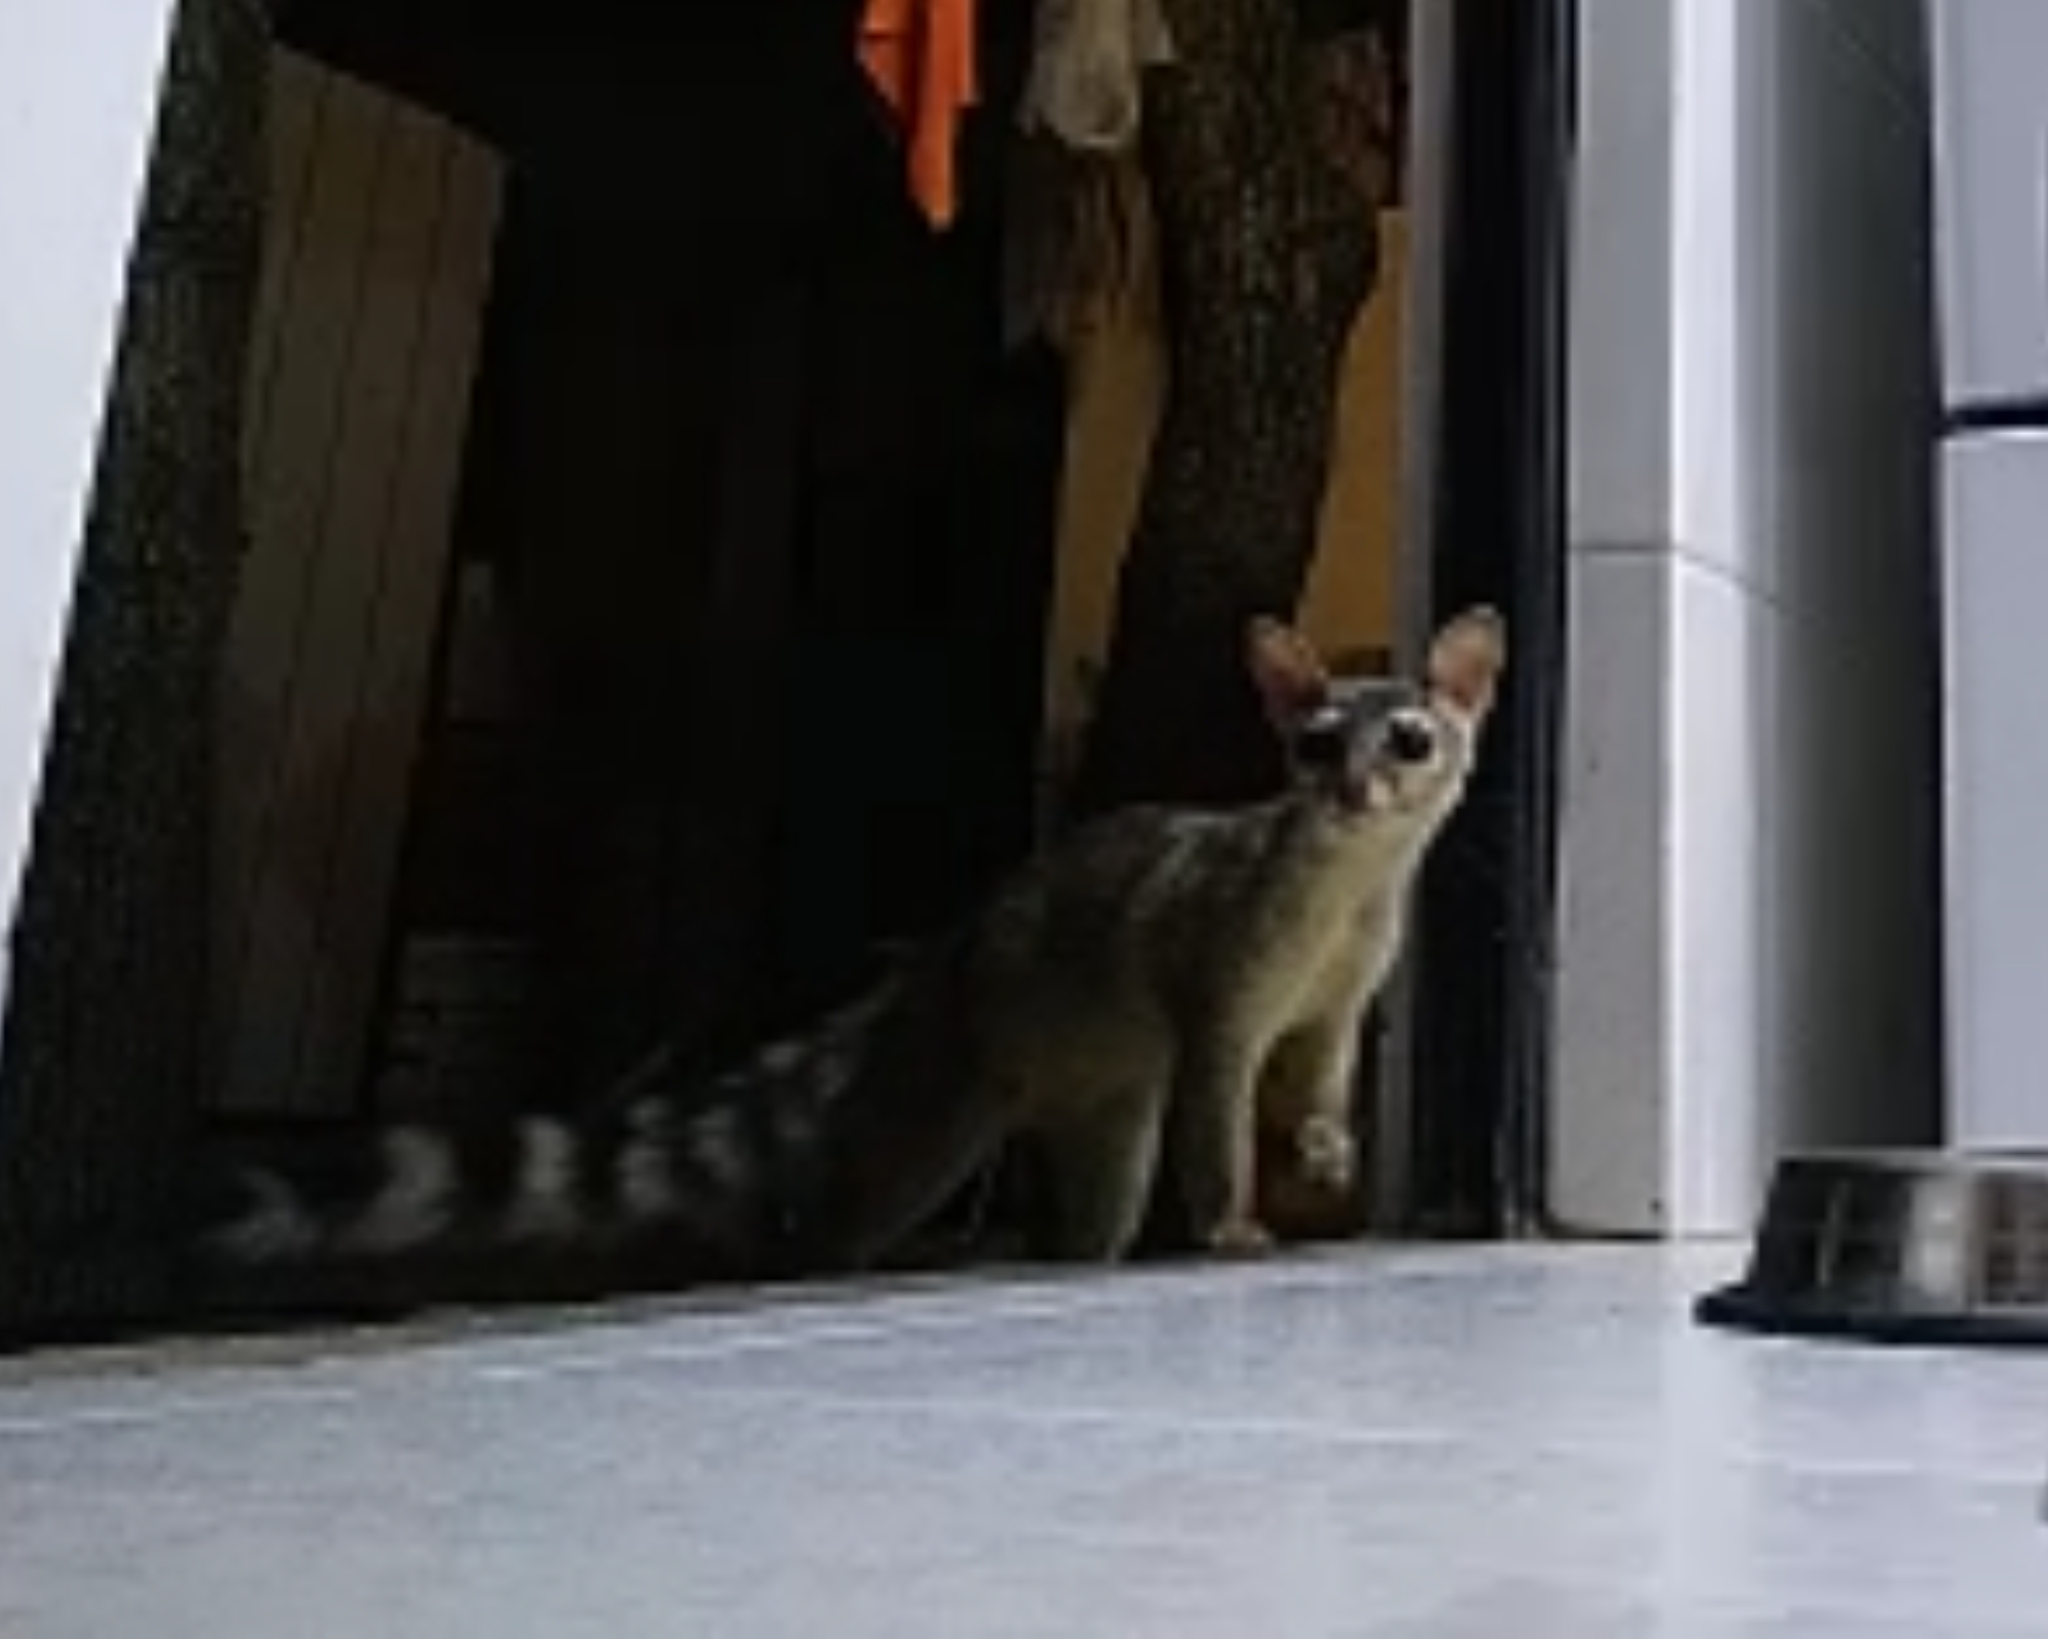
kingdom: Animalia
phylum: Chordata
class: Mammalia
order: Carnivora
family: Procyonidae
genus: Bassariscus
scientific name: Bassariscus astutus
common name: Ringtail
